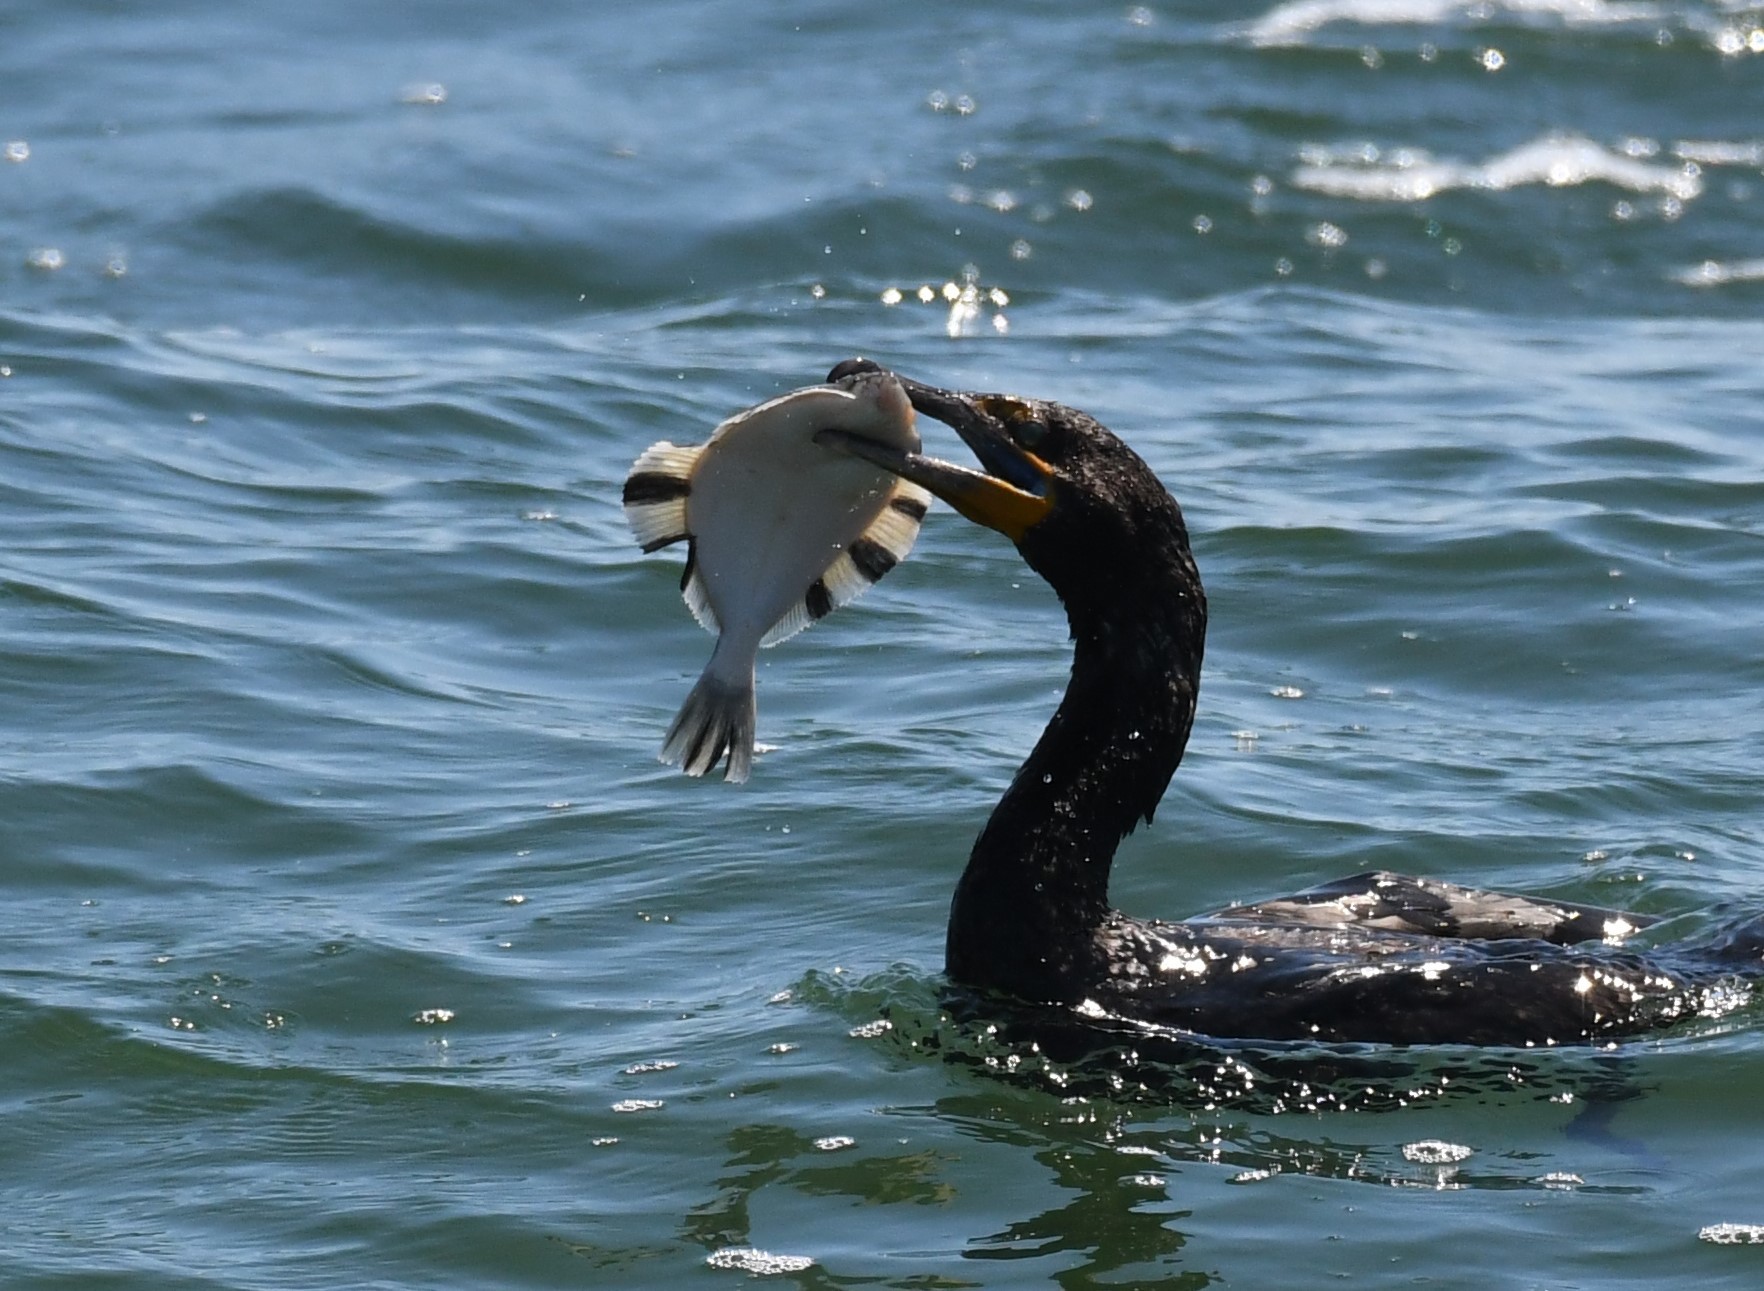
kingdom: Animalia
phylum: Chordata
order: Pleuronectiformes
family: Pleuronectidae
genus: Platichthys
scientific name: Platichthys stellatus
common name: Starry flounder
